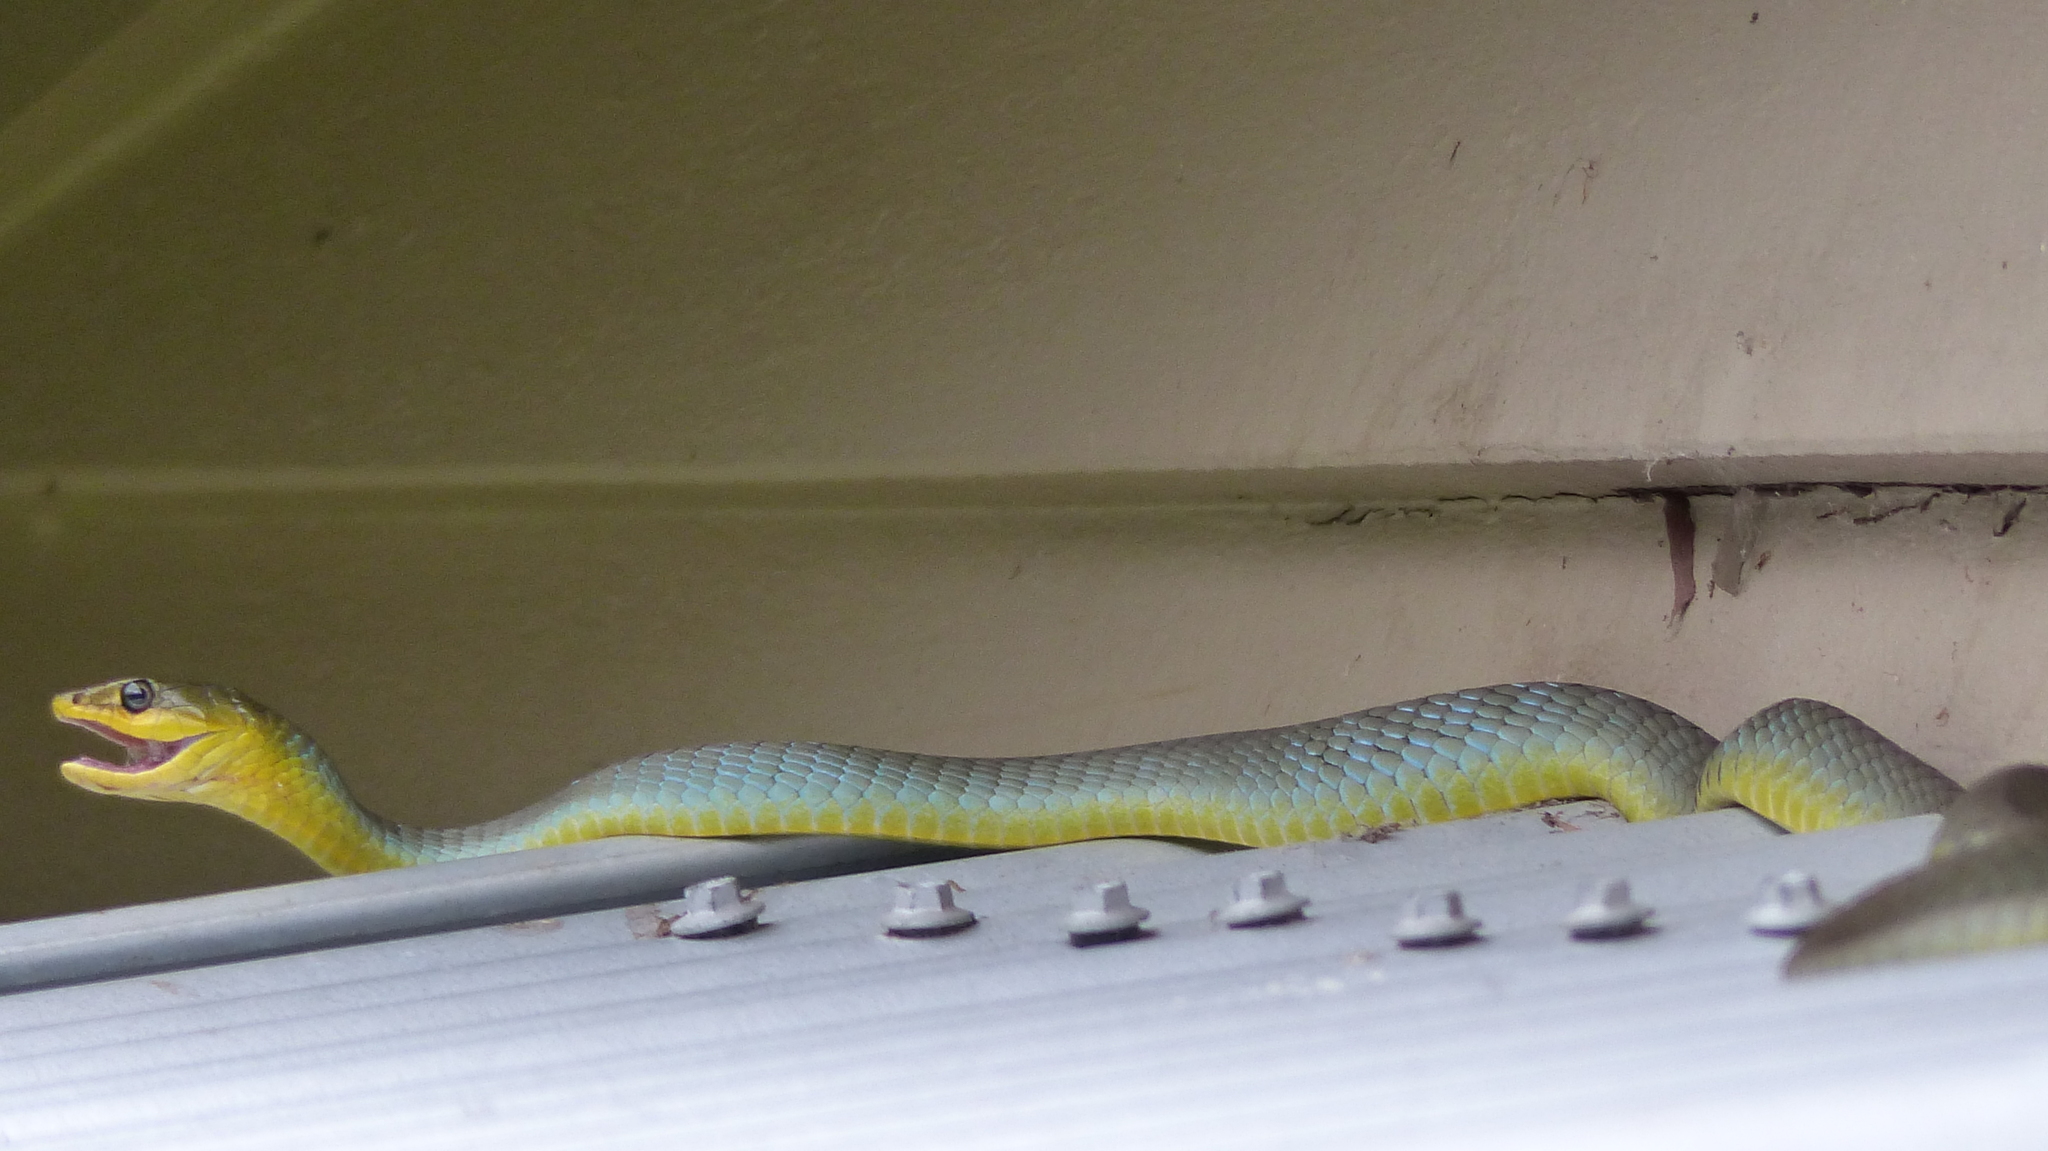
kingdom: Animalia
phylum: Chordata
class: Squamata
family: Colubridae
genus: Dendrelaphis
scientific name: Dendrelaphis punctulatus
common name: Common tree snake
